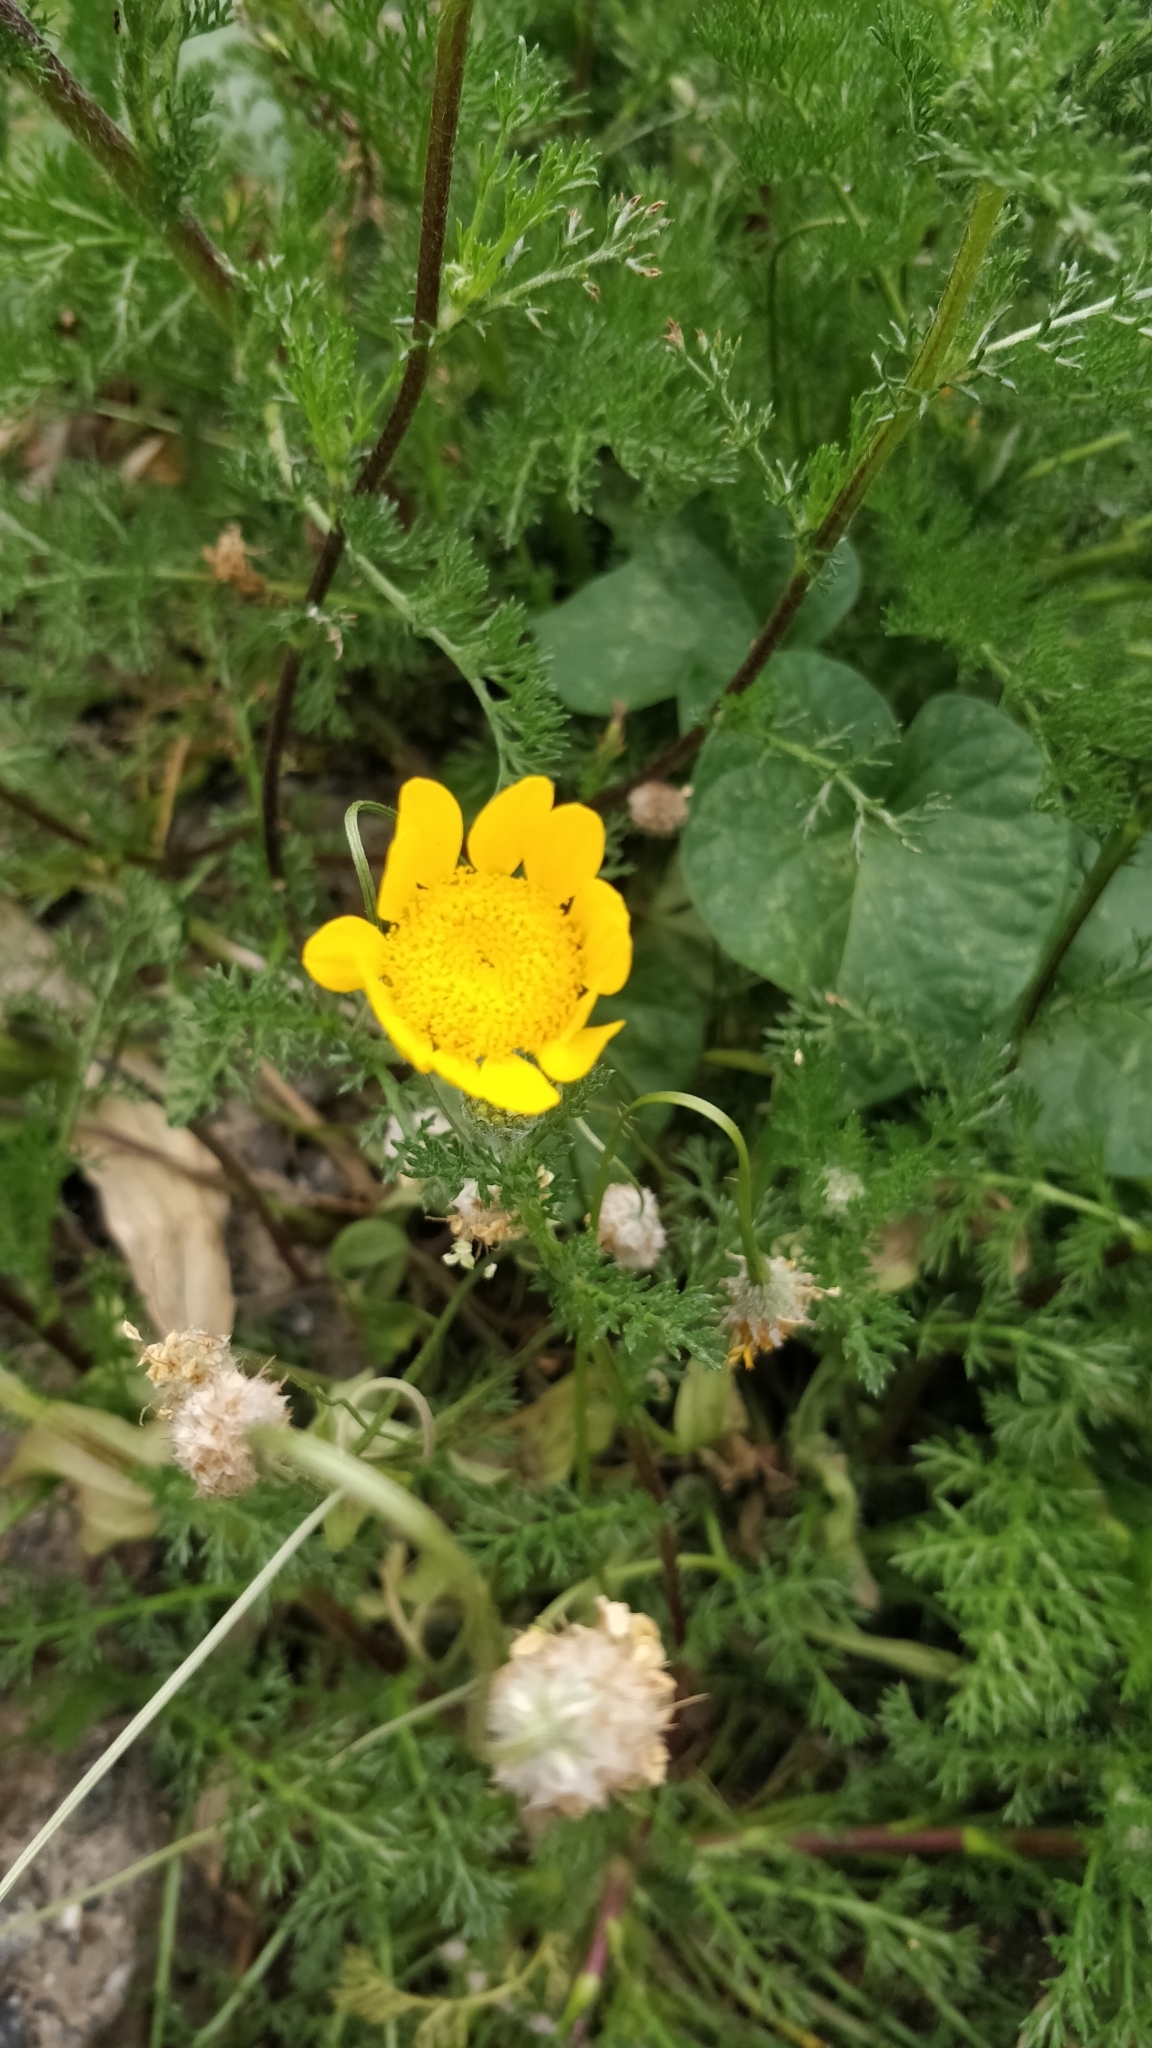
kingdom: Plantae
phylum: Tracheophyta
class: Magnoliopsida
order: Asterales
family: Asteraceae
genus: Glebionis
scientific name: Glebionis coronaria
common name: Crowndaisy
